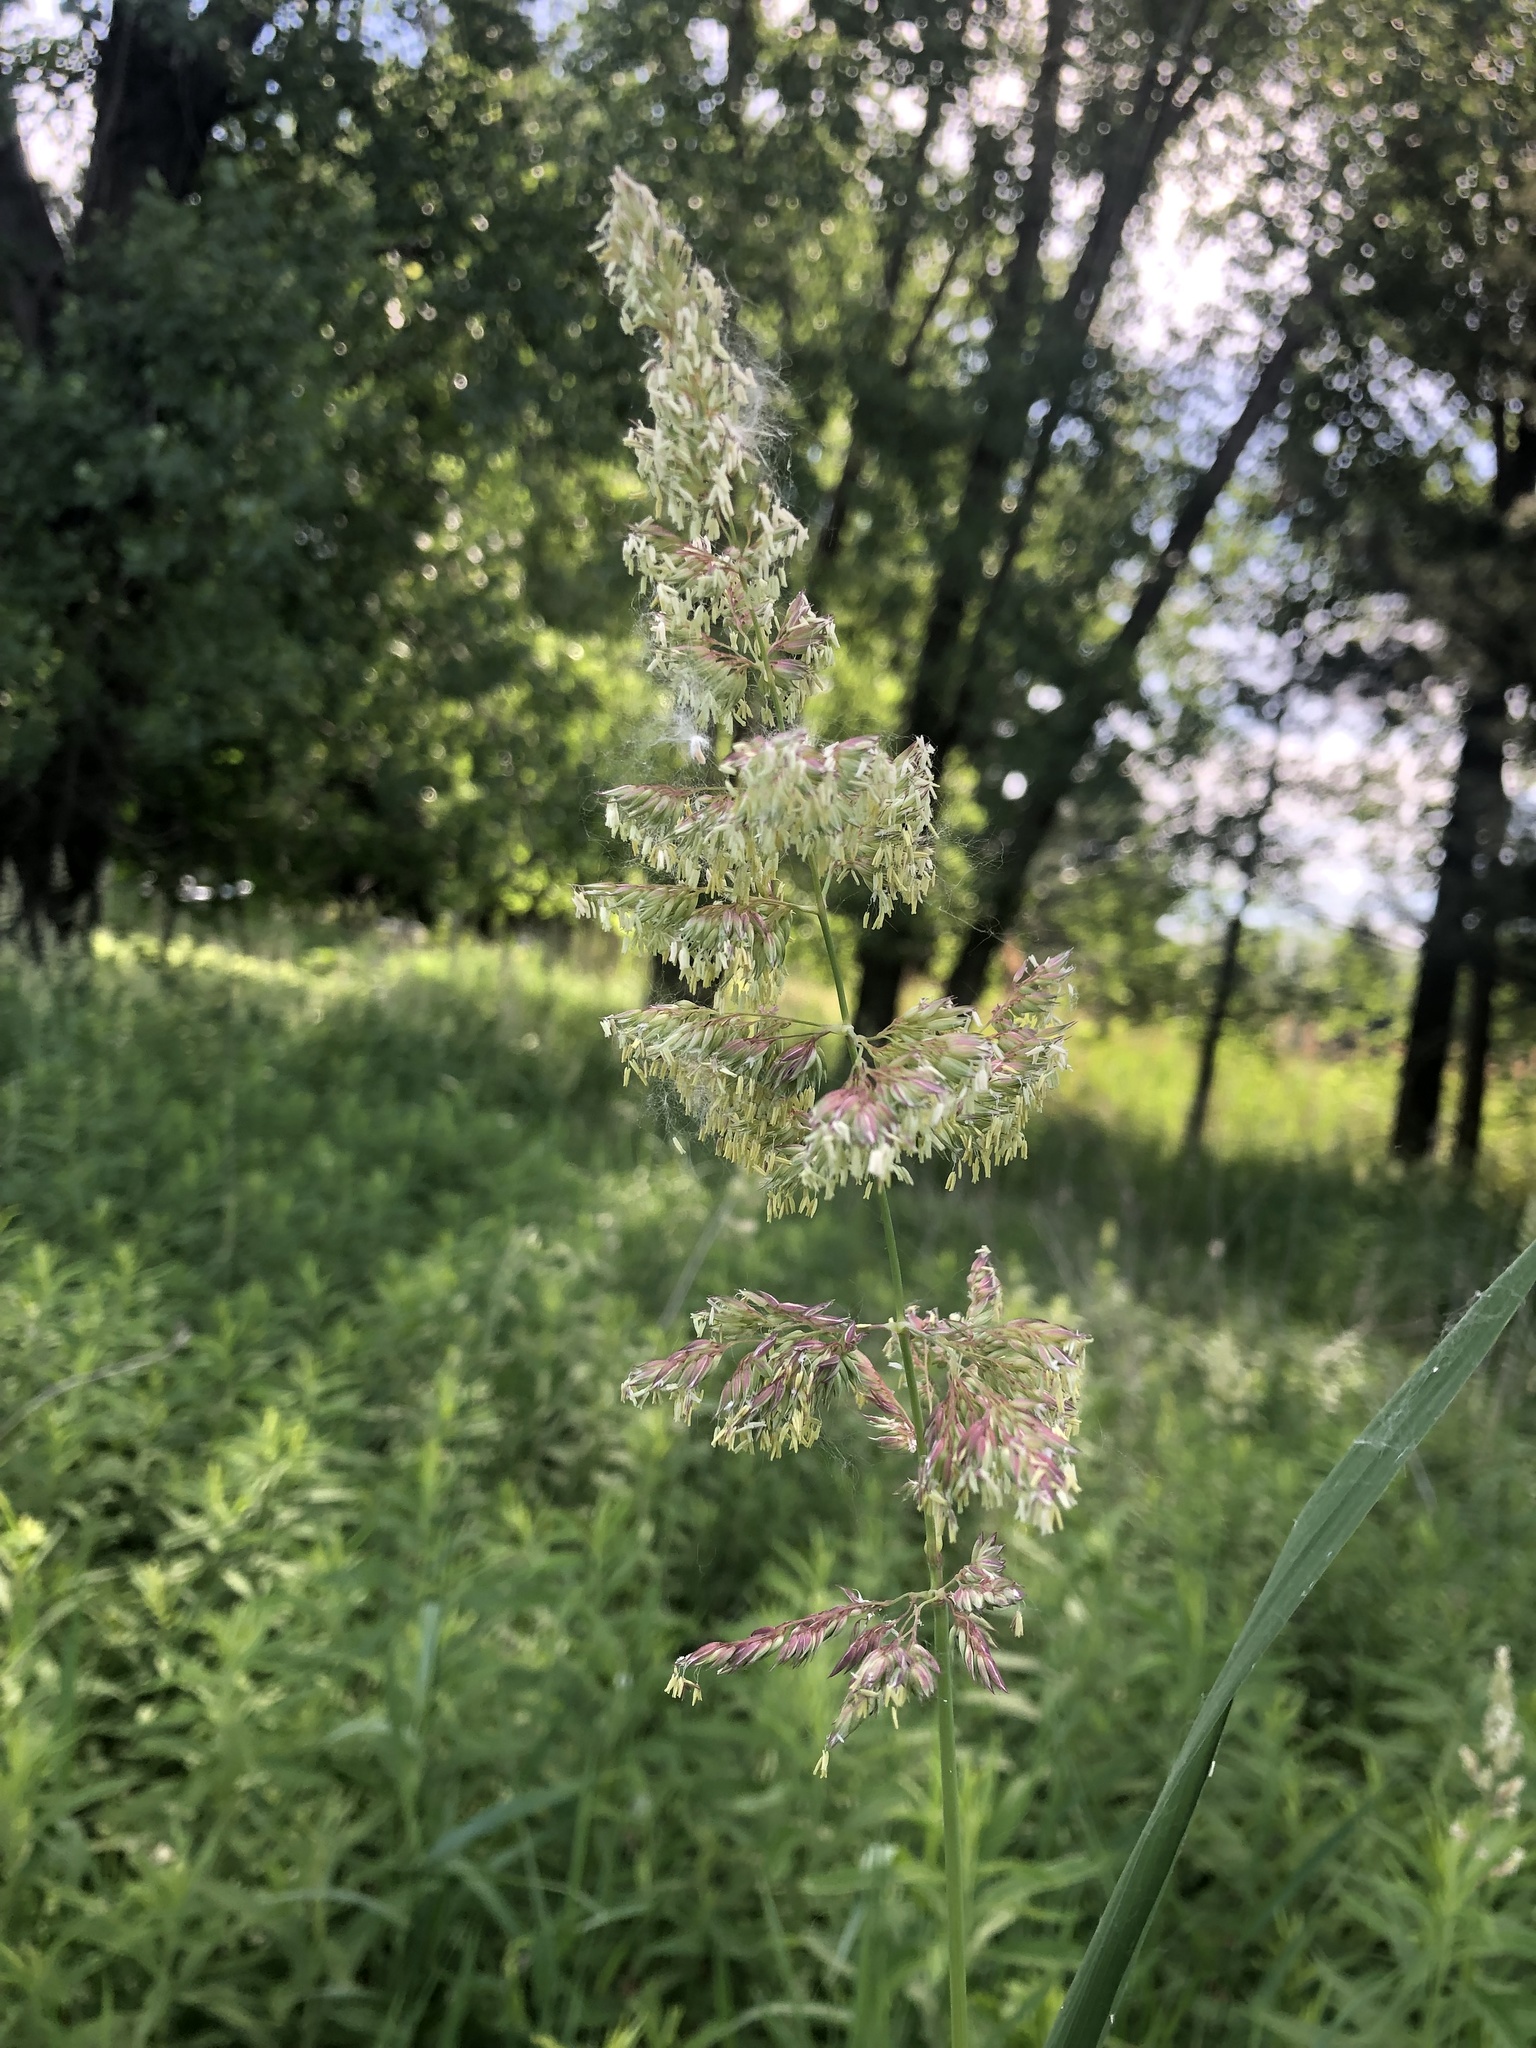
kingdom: Plantae
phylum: Tracheophyta
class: Liliopsida
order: Poales
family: Poaceae
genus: Phalaris
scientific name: Phalaris arundinacea
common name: Reed canary-grass
